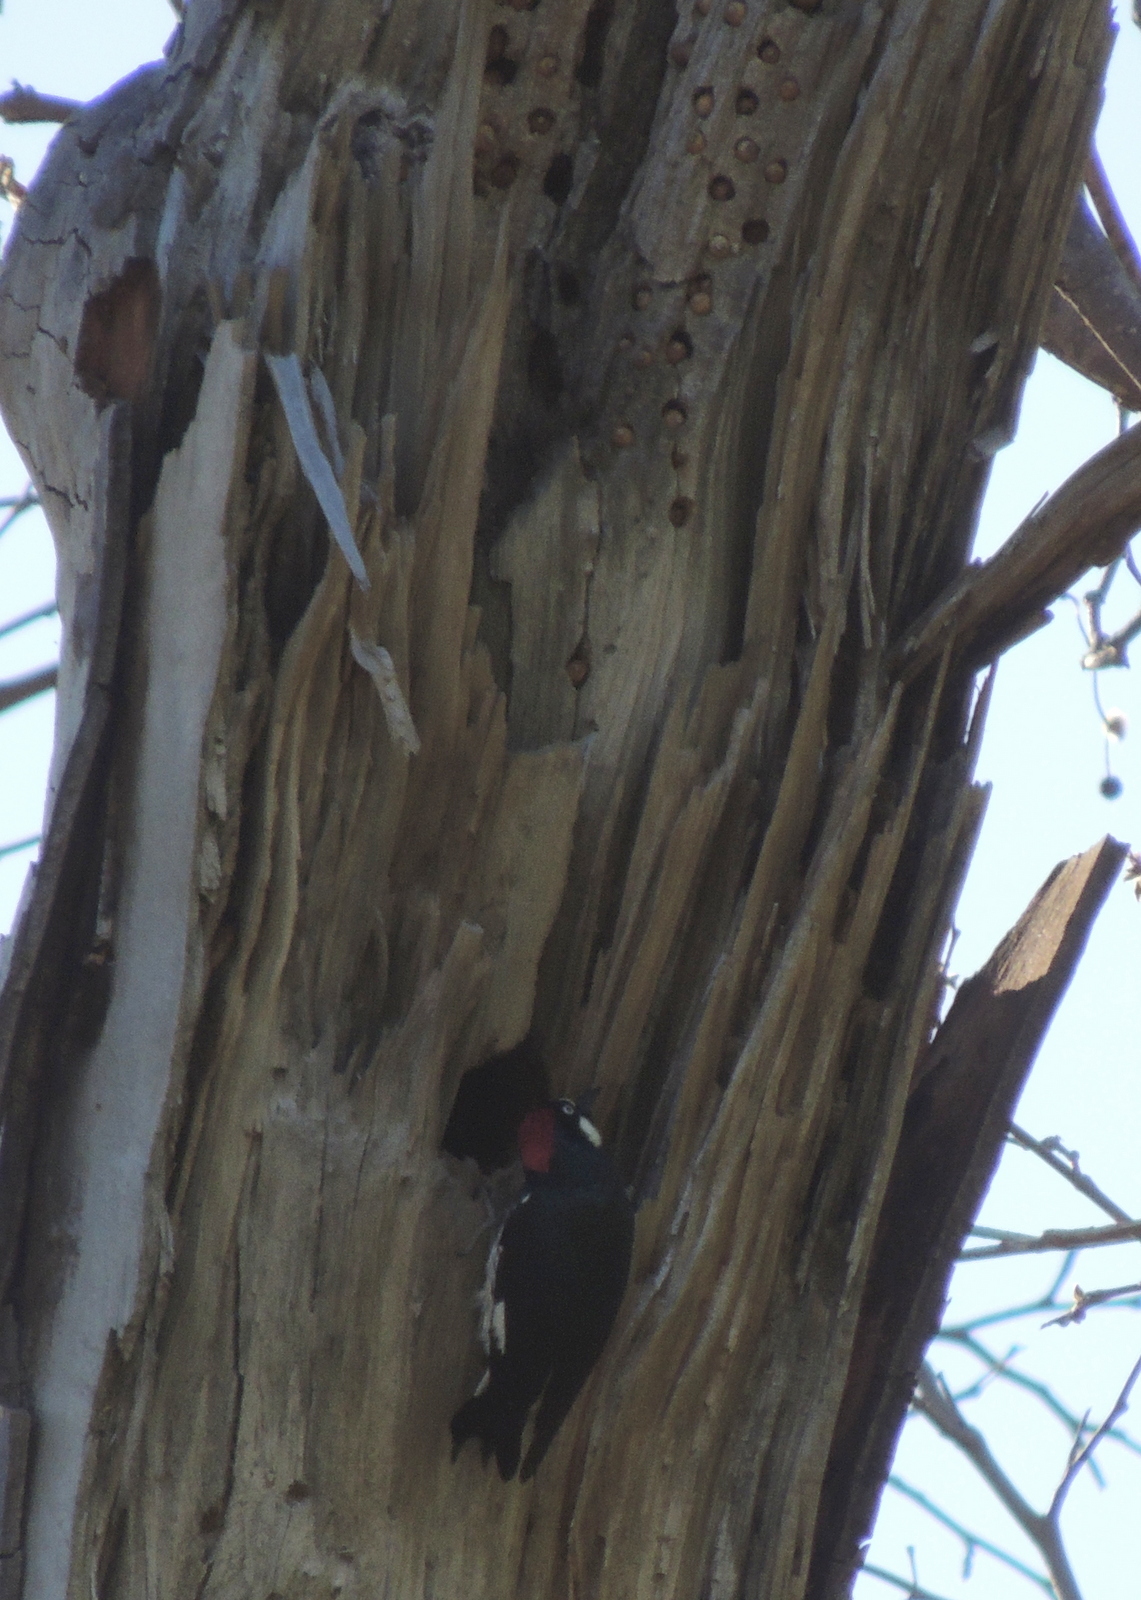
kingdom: Animalia
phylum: Chordata
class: Aves
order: Piciformes
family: Picidae
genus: Melanerpes
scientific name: Melanerpes formicivorus
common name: Acorn woodpecker
